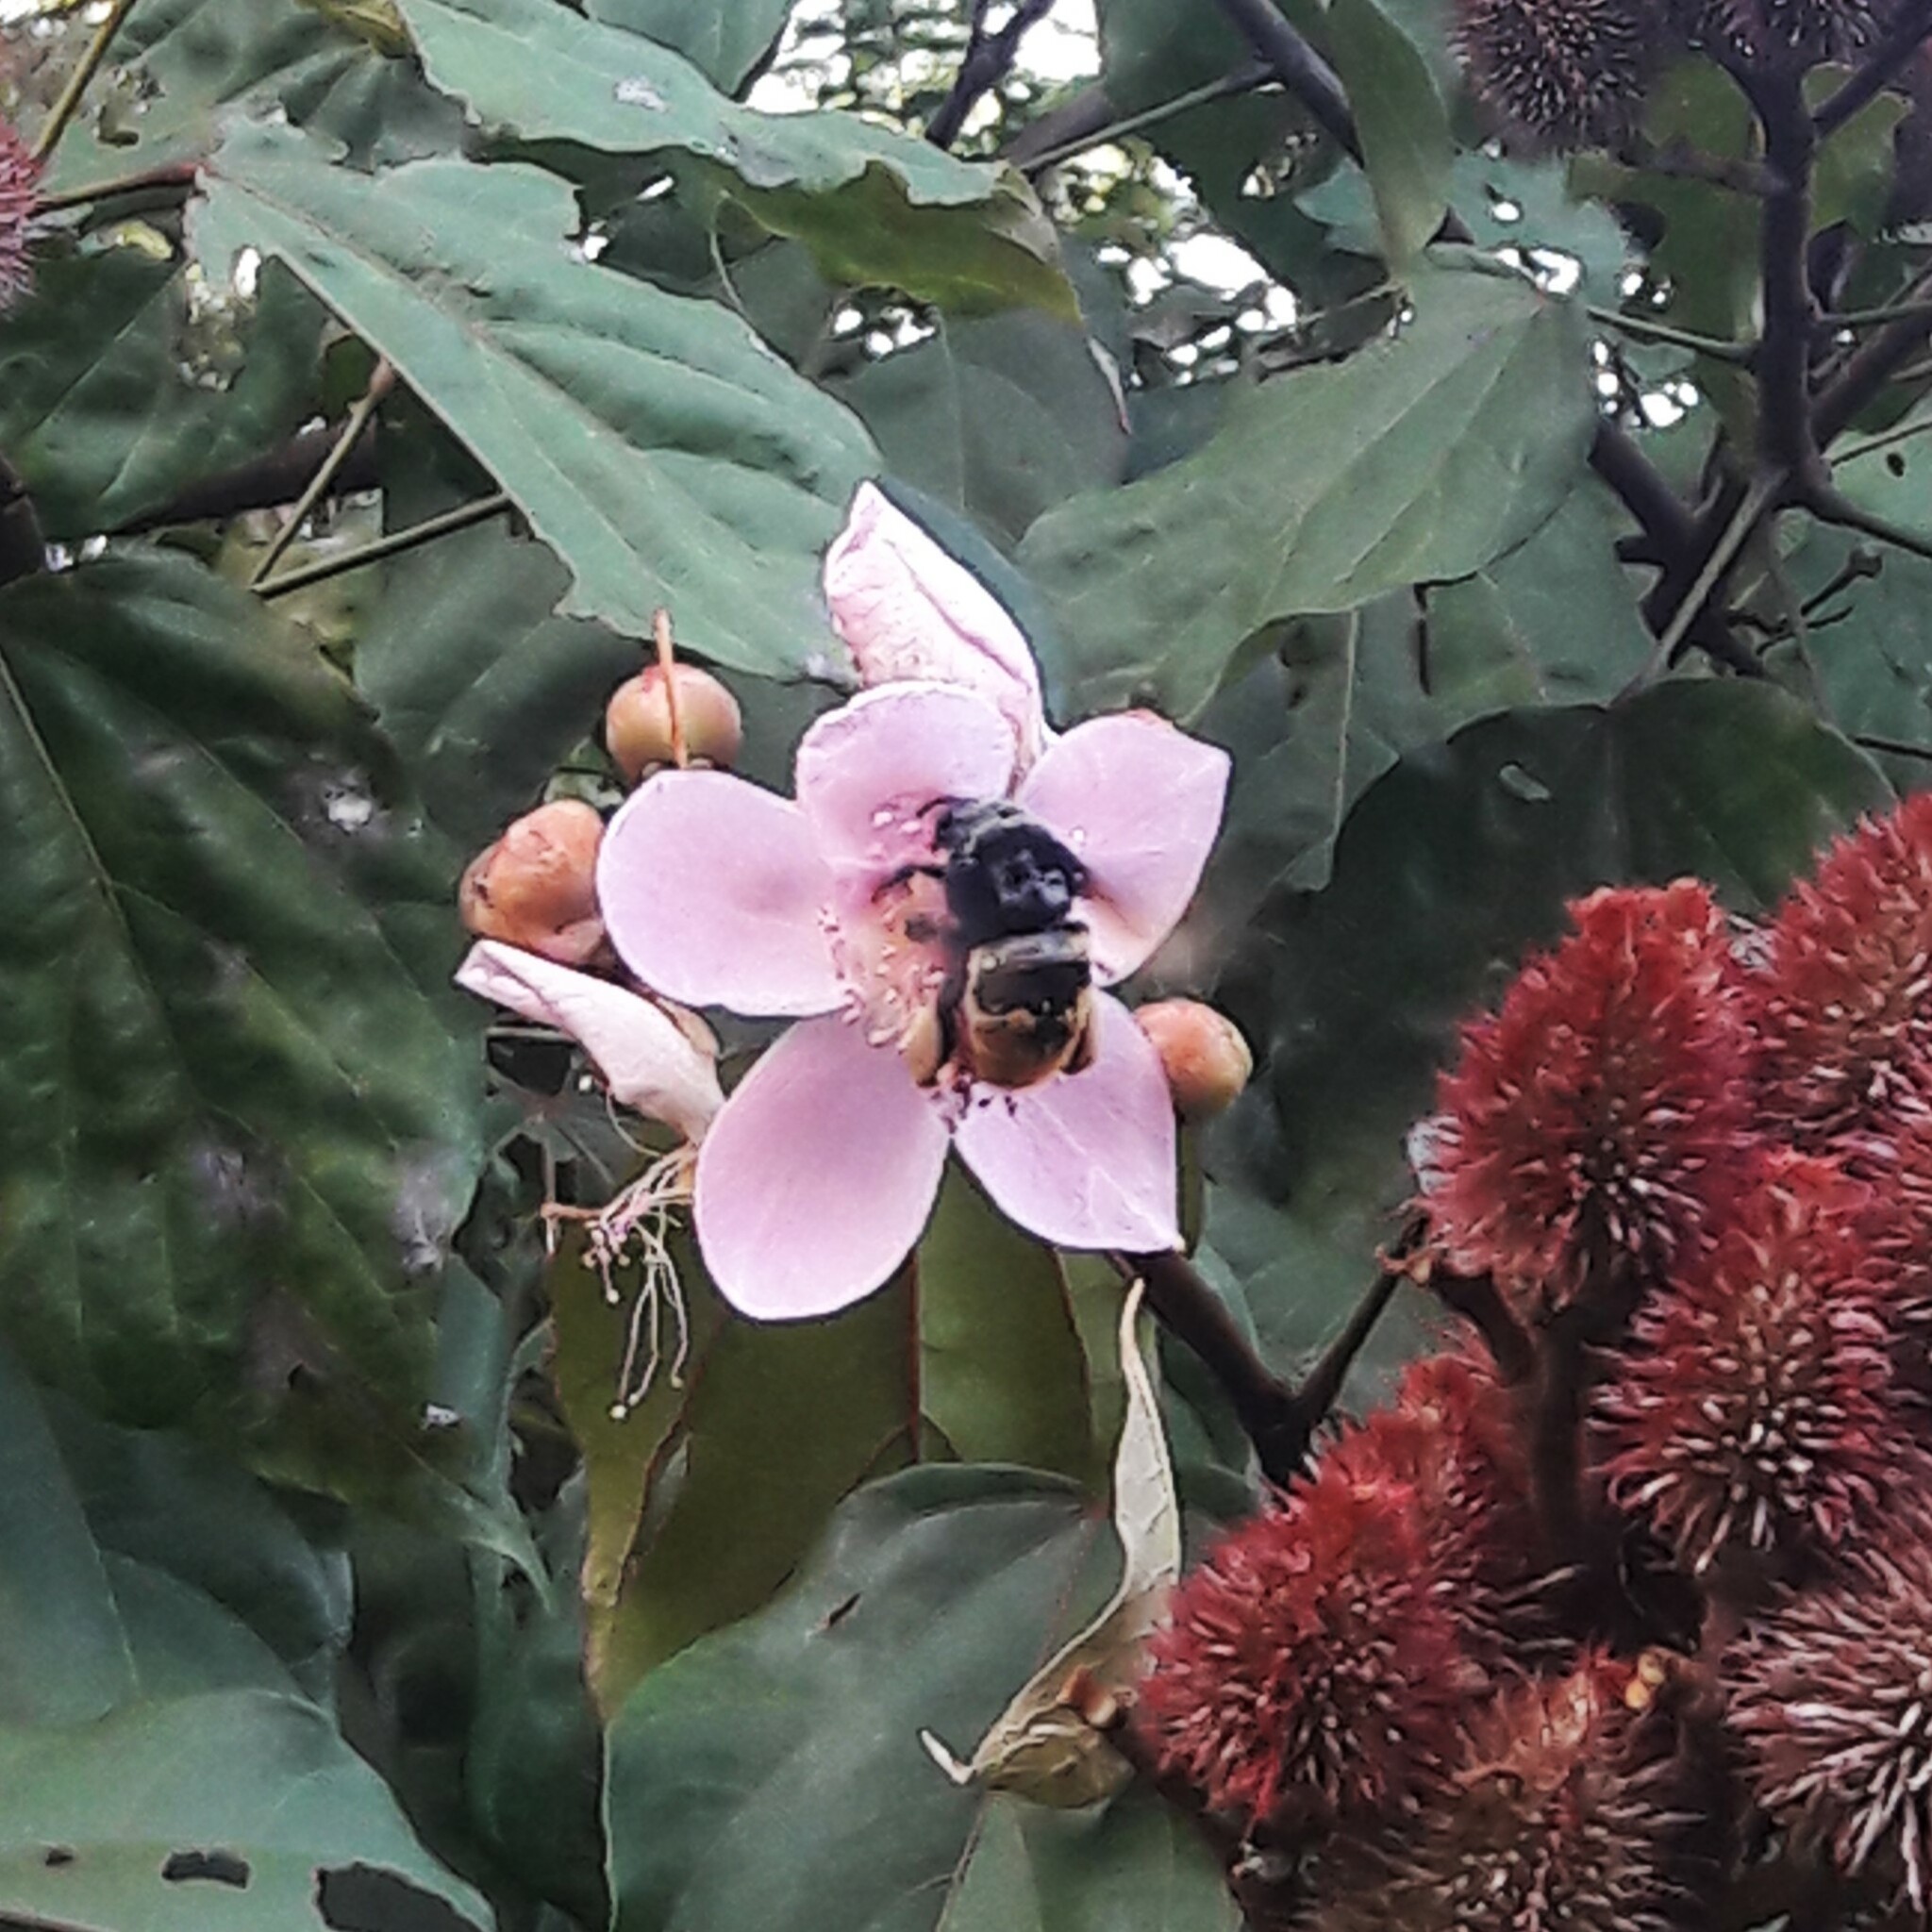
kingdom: Animalia
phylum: Arthropoda
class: Insecta
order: Hymenoptera
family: Apidae
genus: Eulaema
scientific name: Eulaema cingulata
